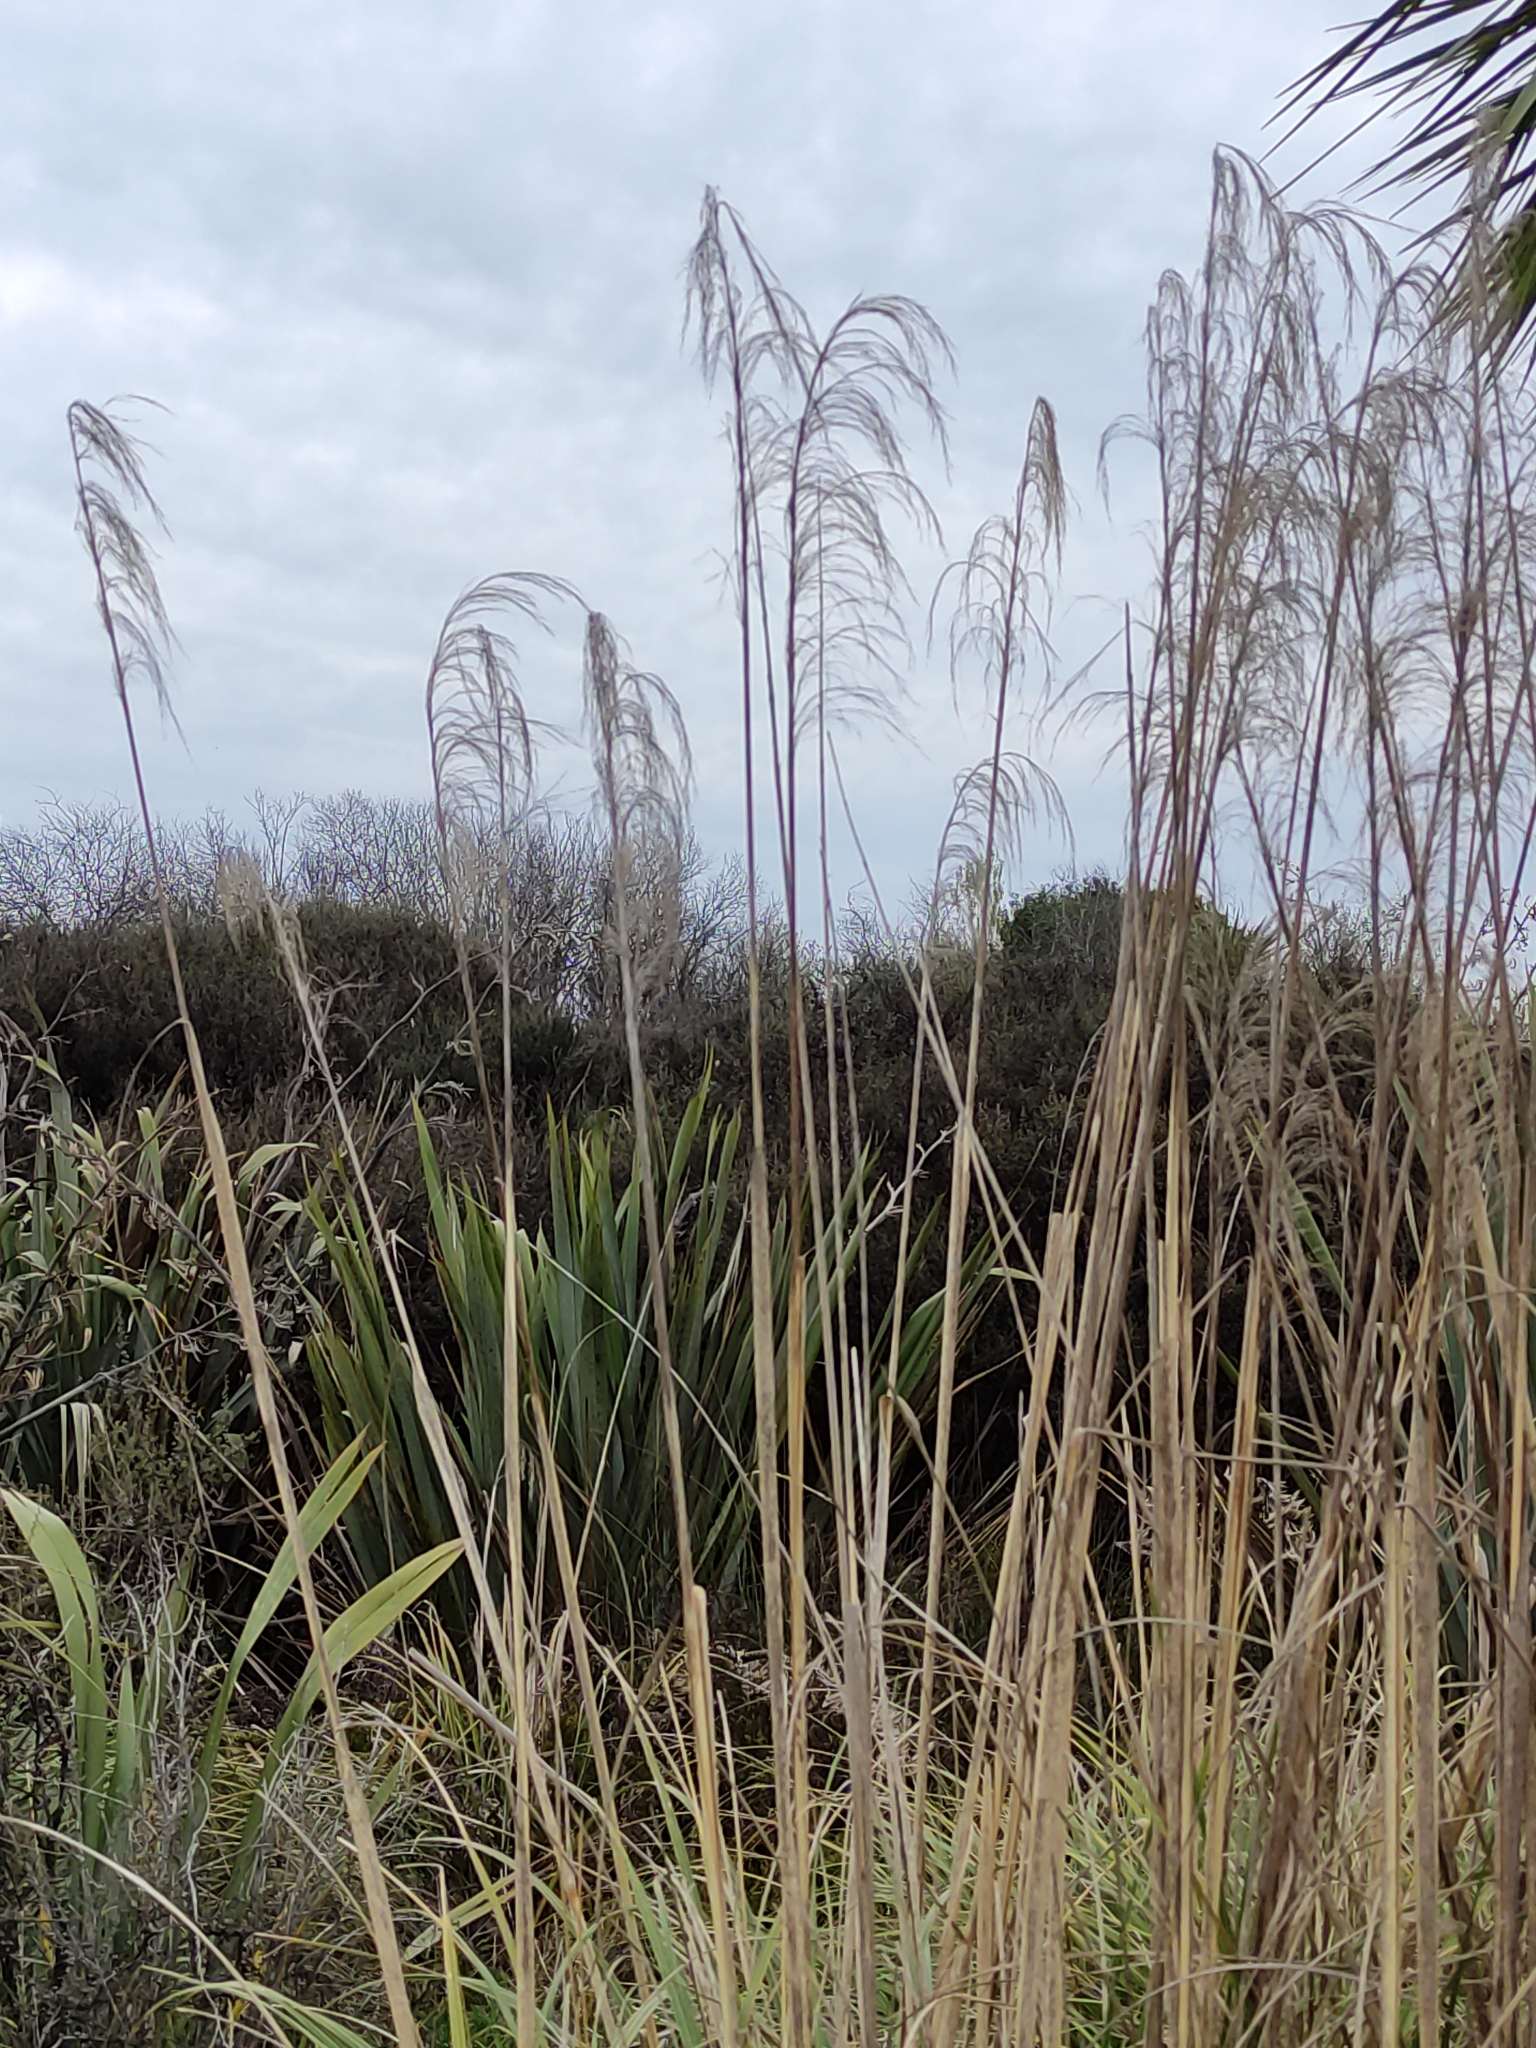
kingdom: Plantae
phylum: Tracheophyta
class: Liliopsida
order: Poales
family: Poaceae
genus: Austroderia
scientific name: Austroderia richardii
